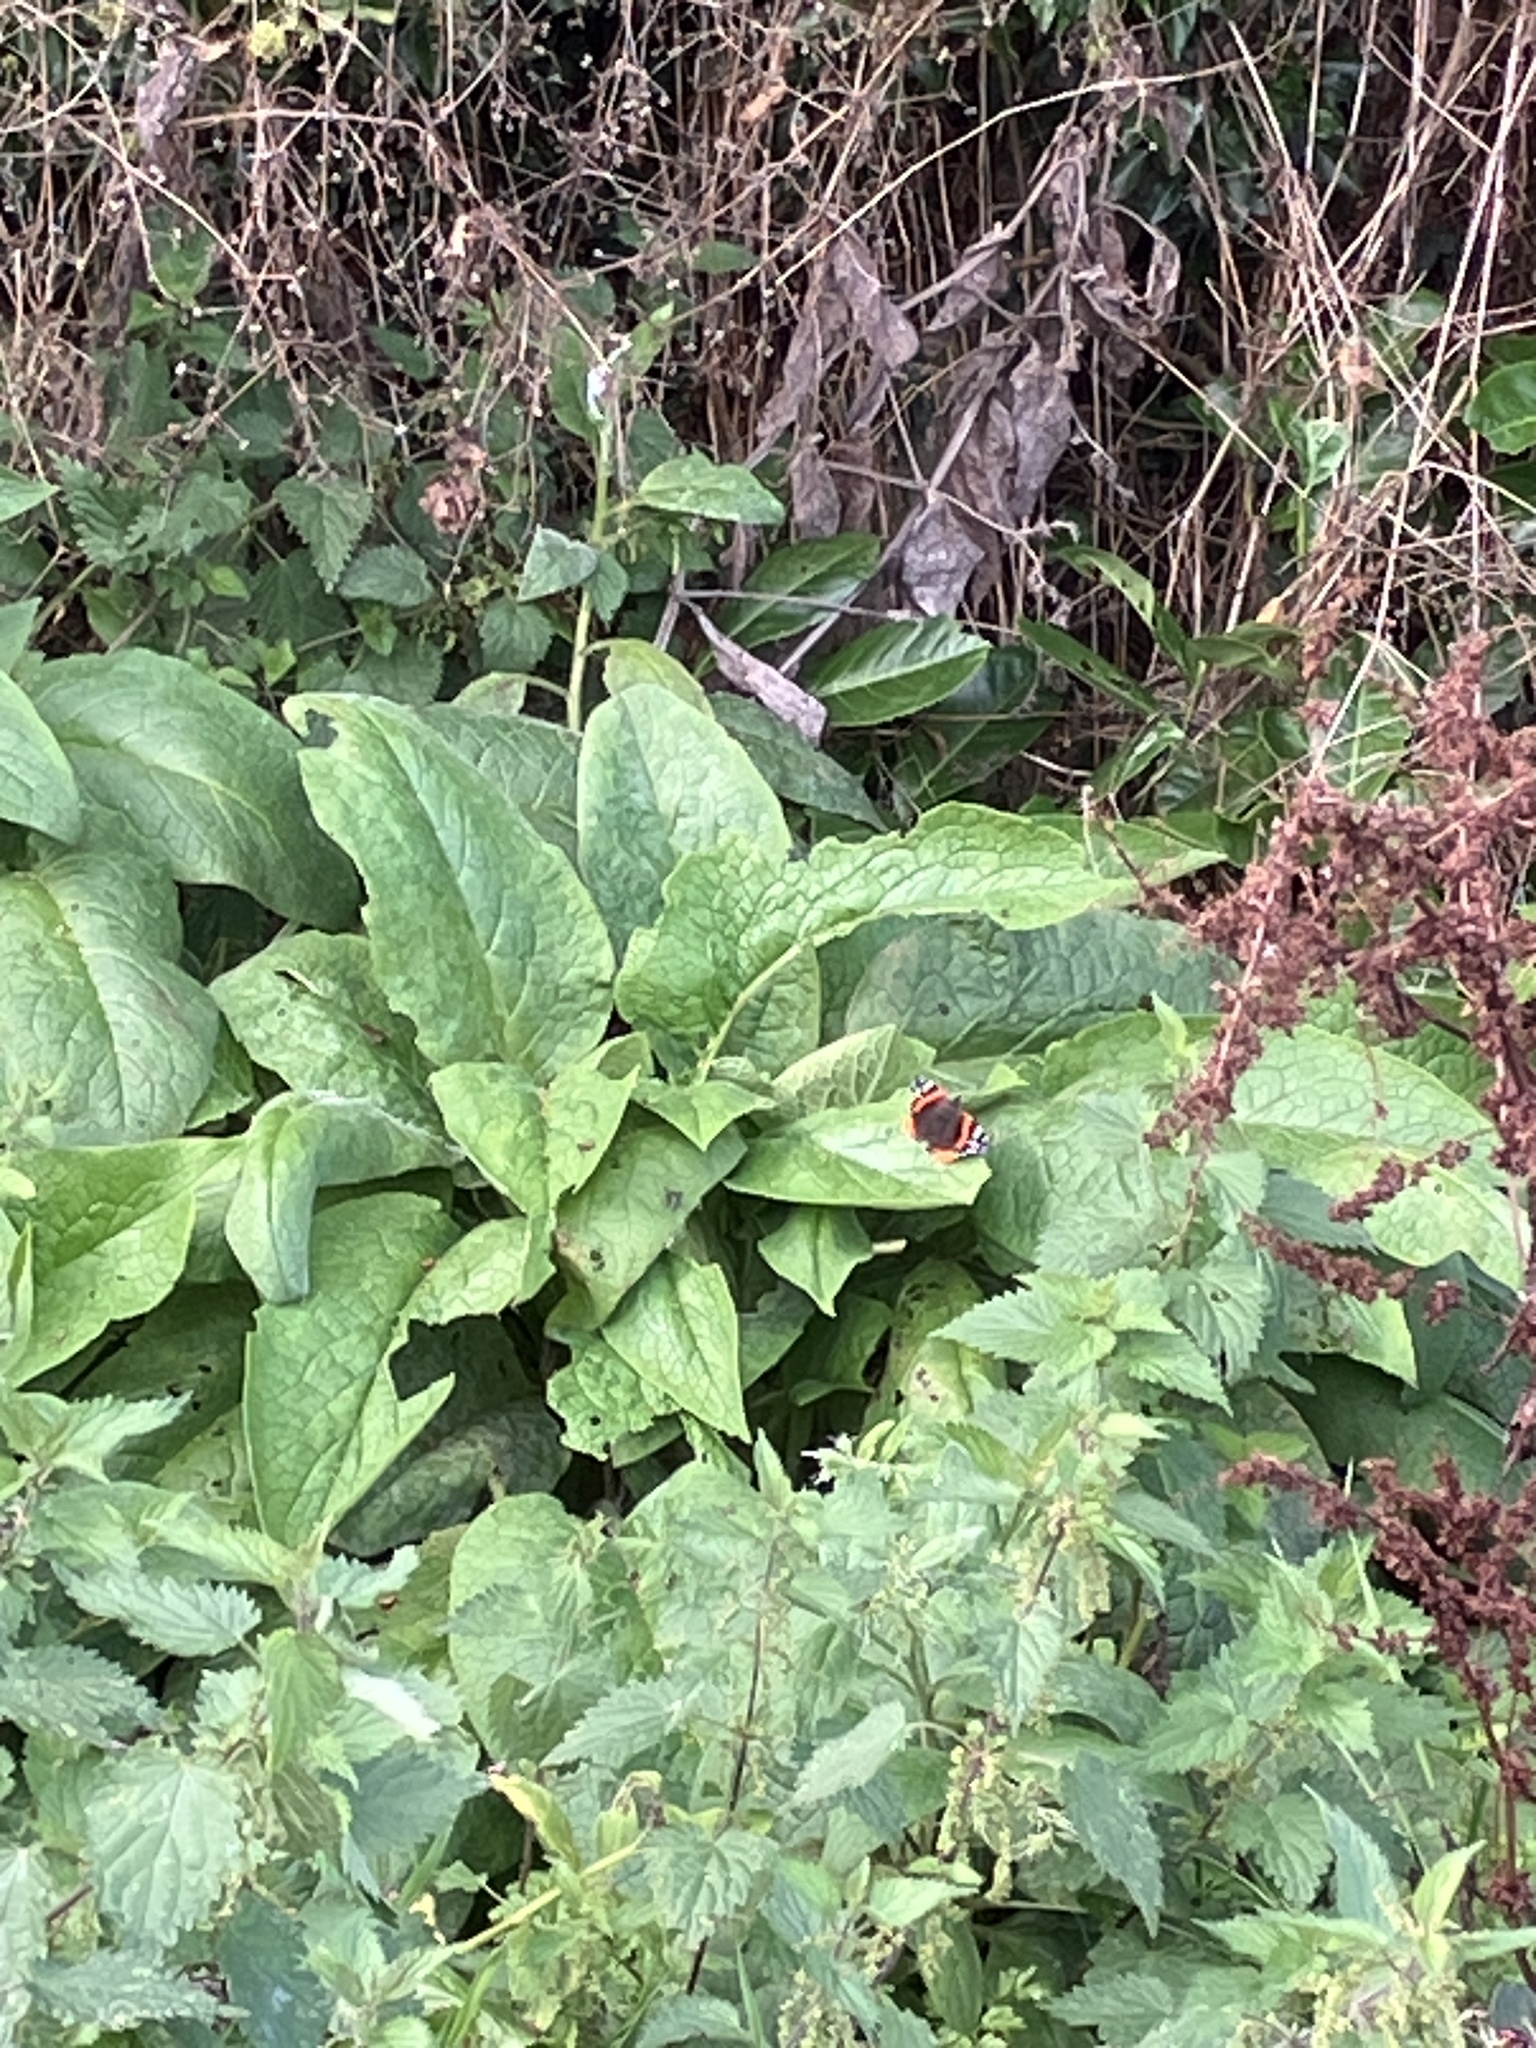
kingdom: Animalia
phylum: Arthropoda
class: Insecta
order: Lepidoptera
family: Nymphalidae
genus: Vanessa
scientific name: Vanessa atalanta
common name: Red admiral
